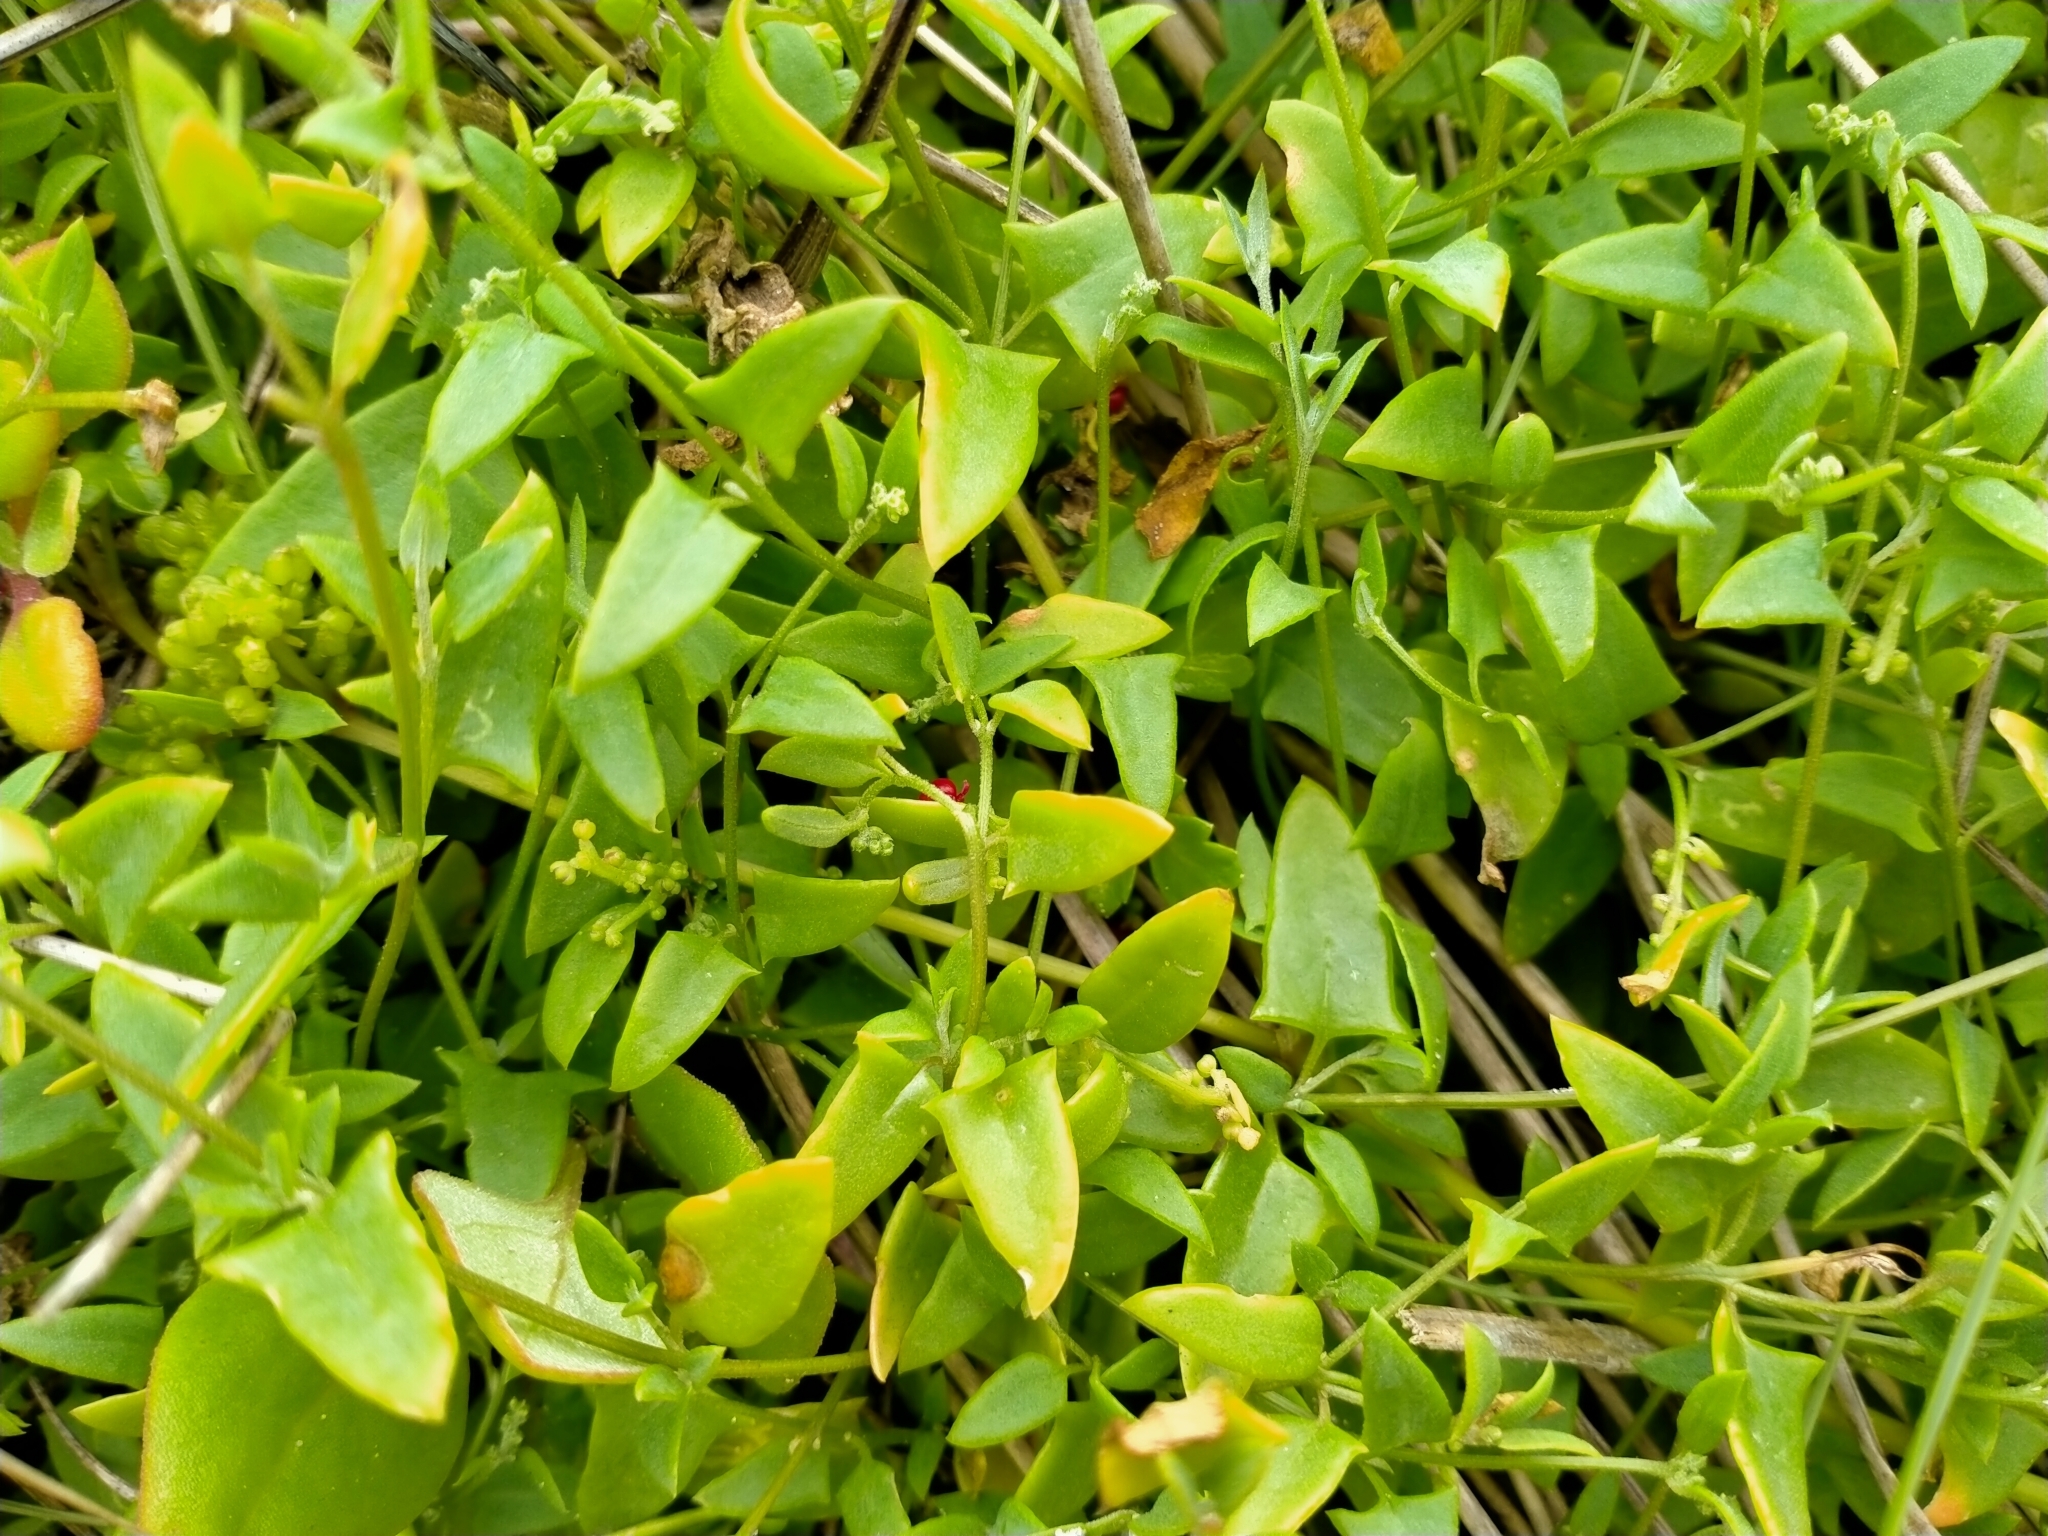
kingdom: Plantae
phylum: Tracheophyta
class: Magnoliopsida
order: Caryophyllales
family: Amaranthaceae
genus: Chenopodium
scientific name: Chenopodium nutans
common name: Climbing-saltbush
